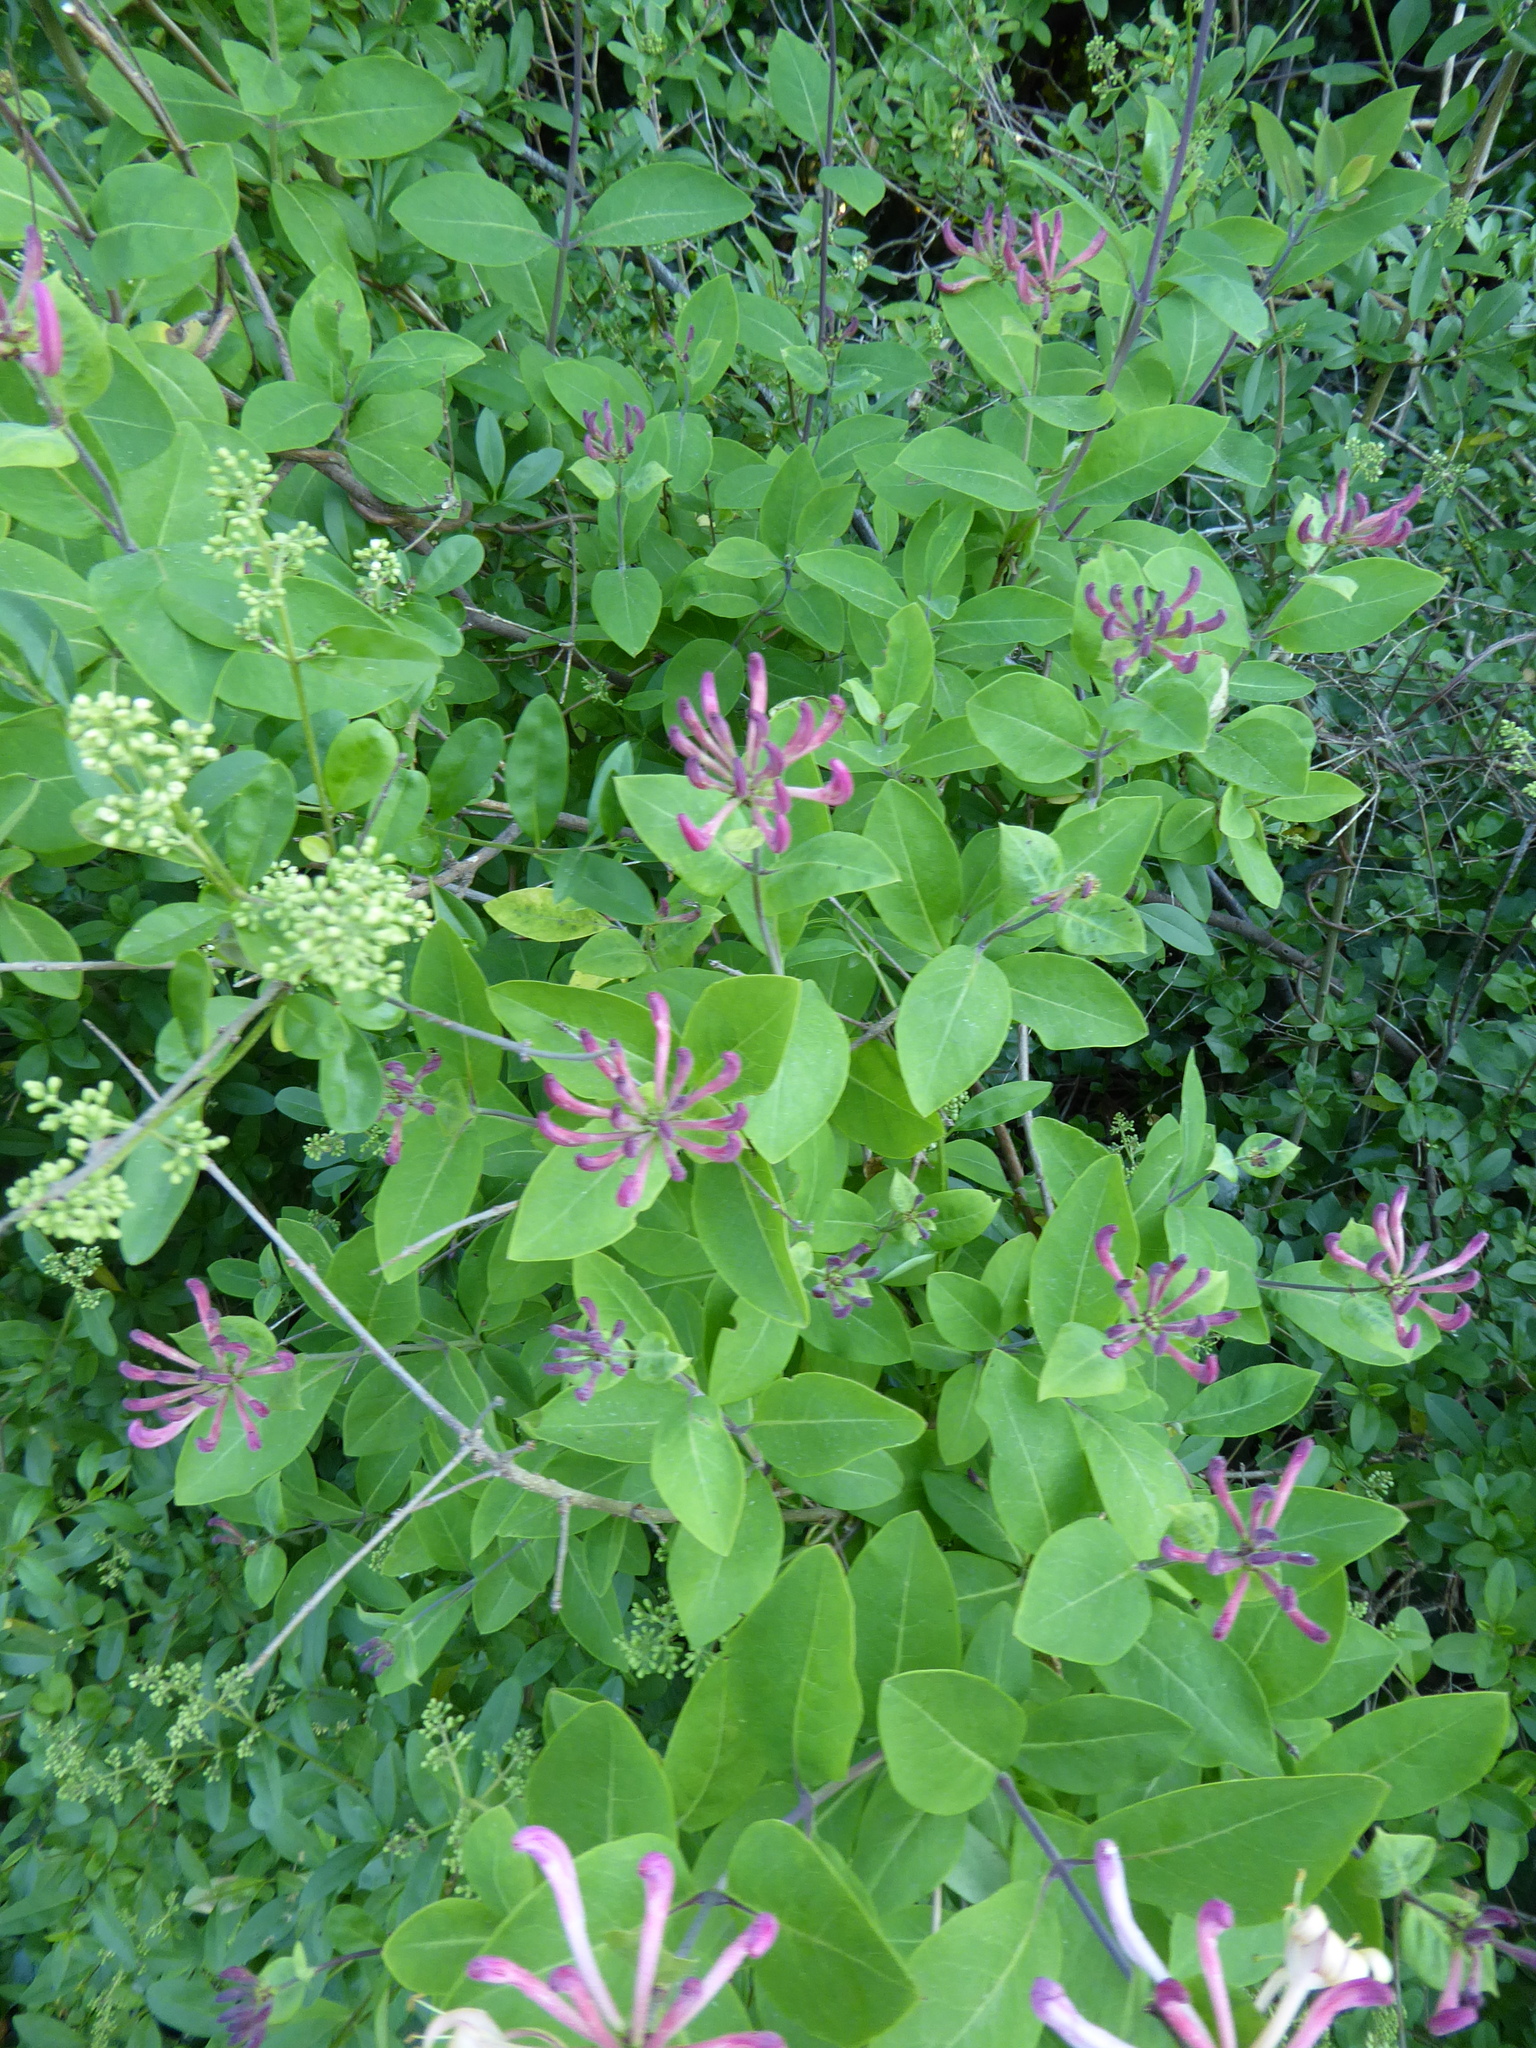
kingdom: Plantae
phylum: Tracheophyta
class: Magnoliopsida
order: Dipsacales
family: Caprifoliaceae
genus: Lonicera
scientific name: Lonicera periclymenum
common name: European honeysuckle
